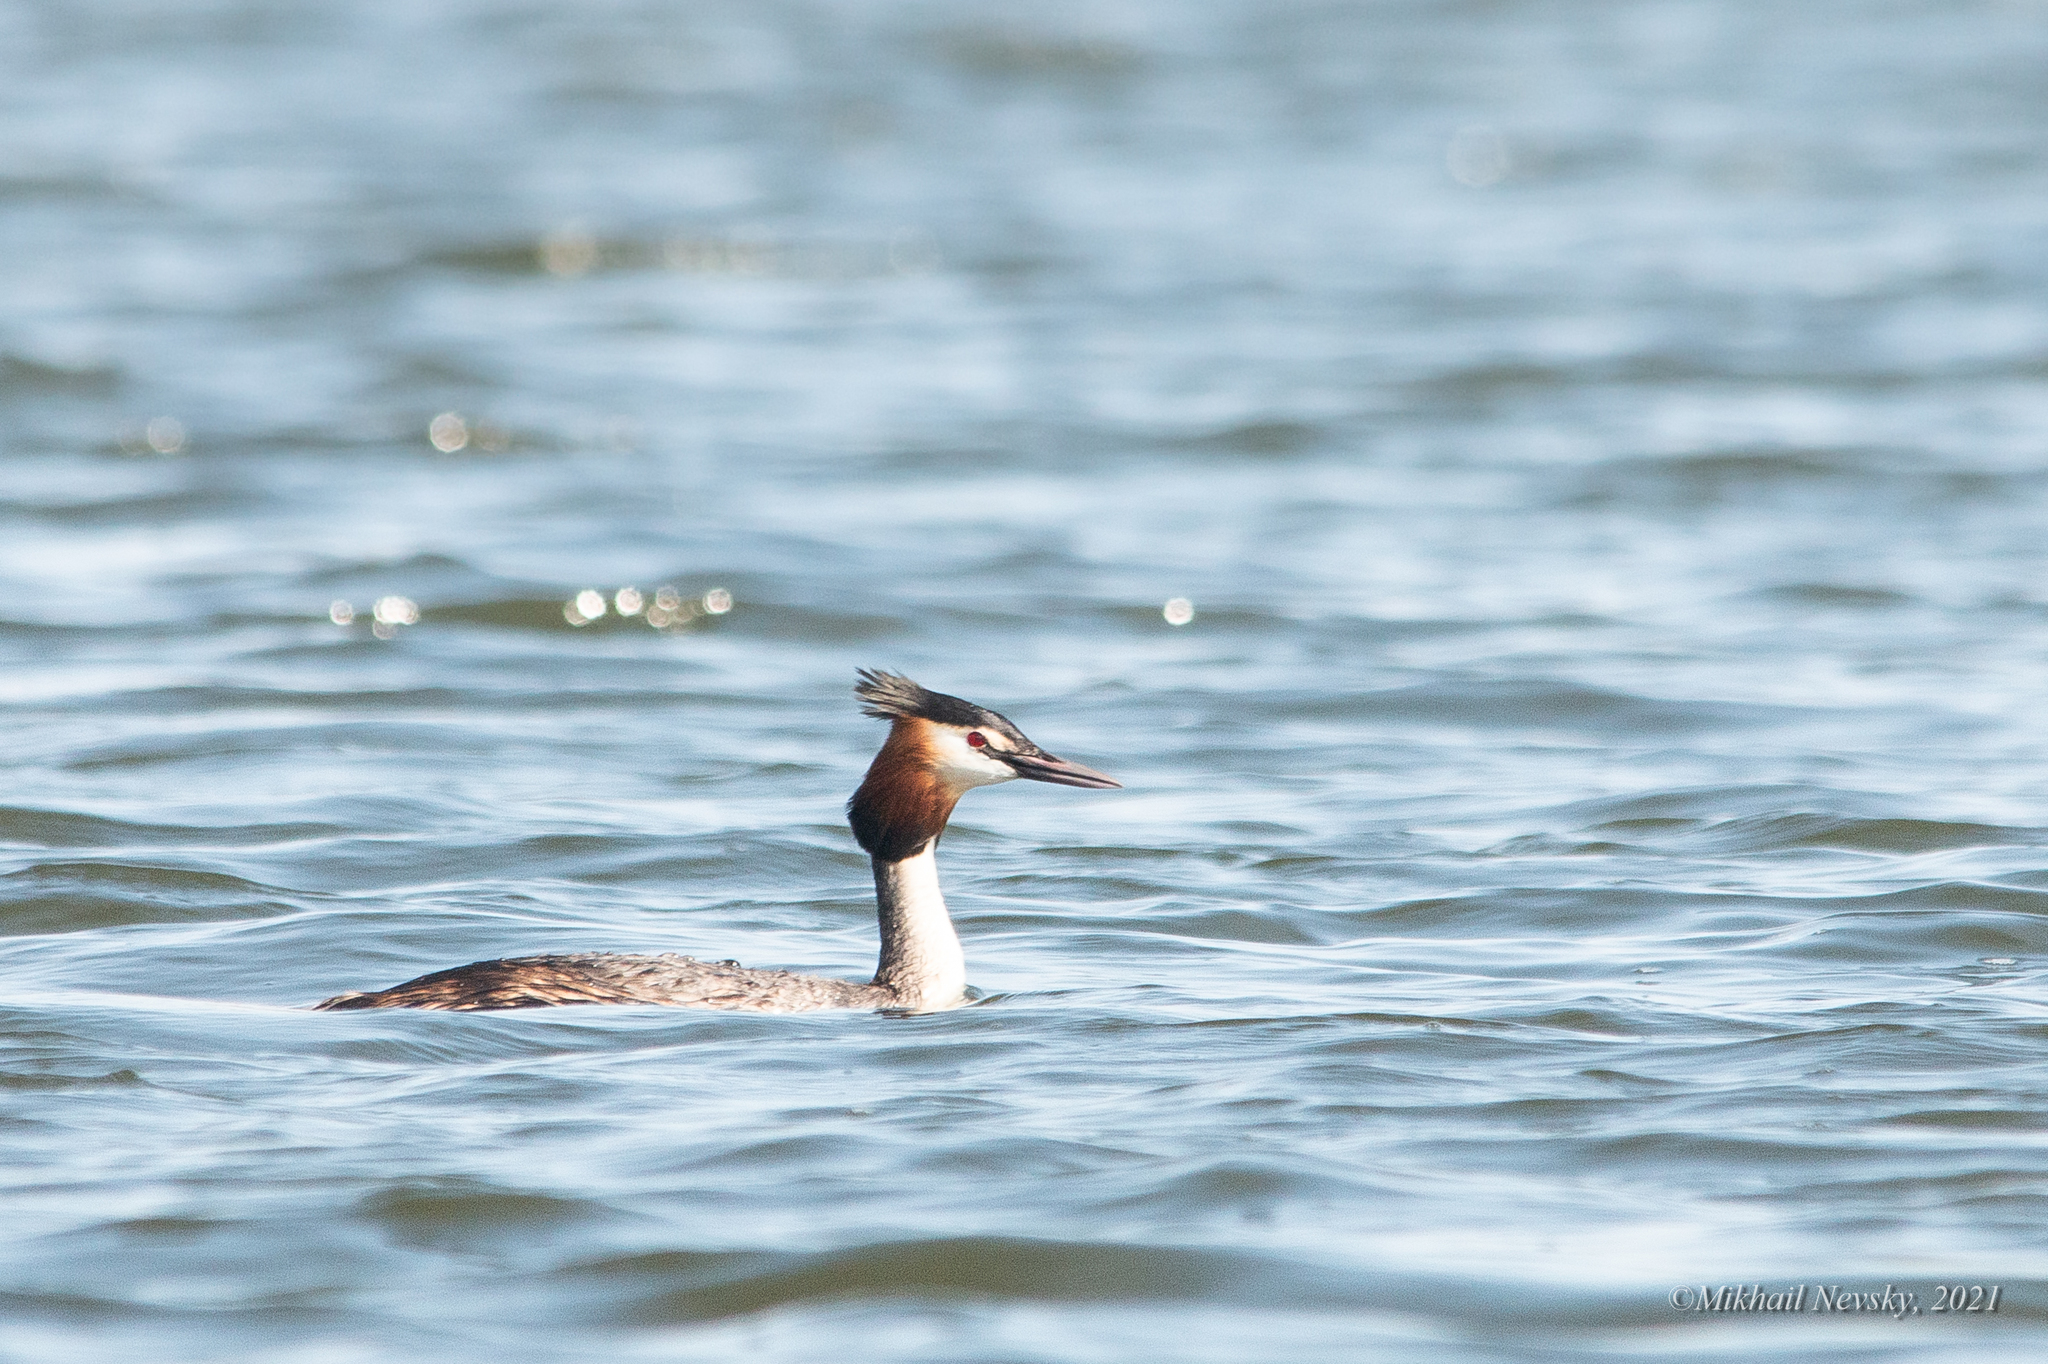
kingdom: Animalia
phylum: Chordata
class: Aves
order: Podicipediformes
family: Podicipedidae
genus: Podiceps
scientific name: Podiceps cristatus
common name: Great crested grebe
